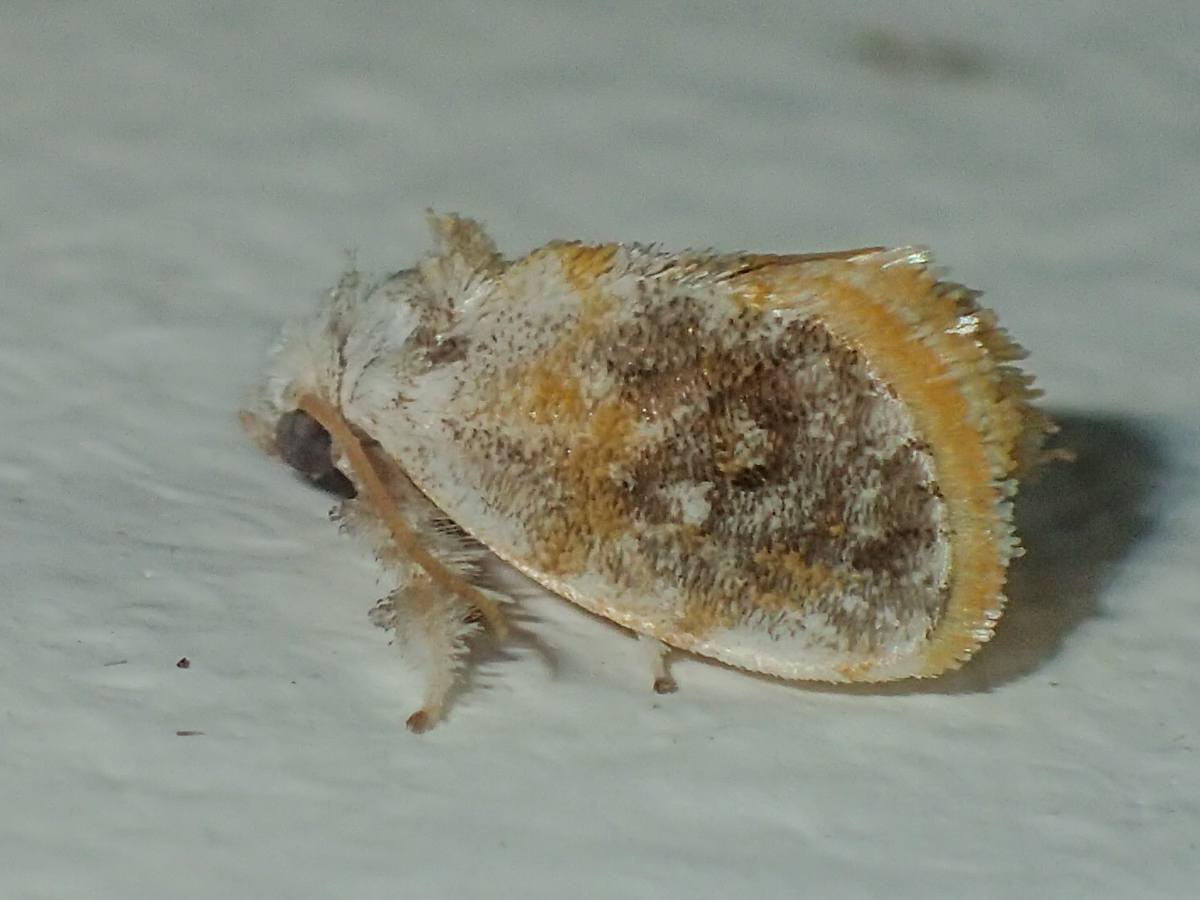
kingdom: Animalia
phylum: Arthropoda
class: Insecta
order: Lepidoptera
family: Limacodidae
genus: Kitanola
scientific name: Kitanola brachygnatha
